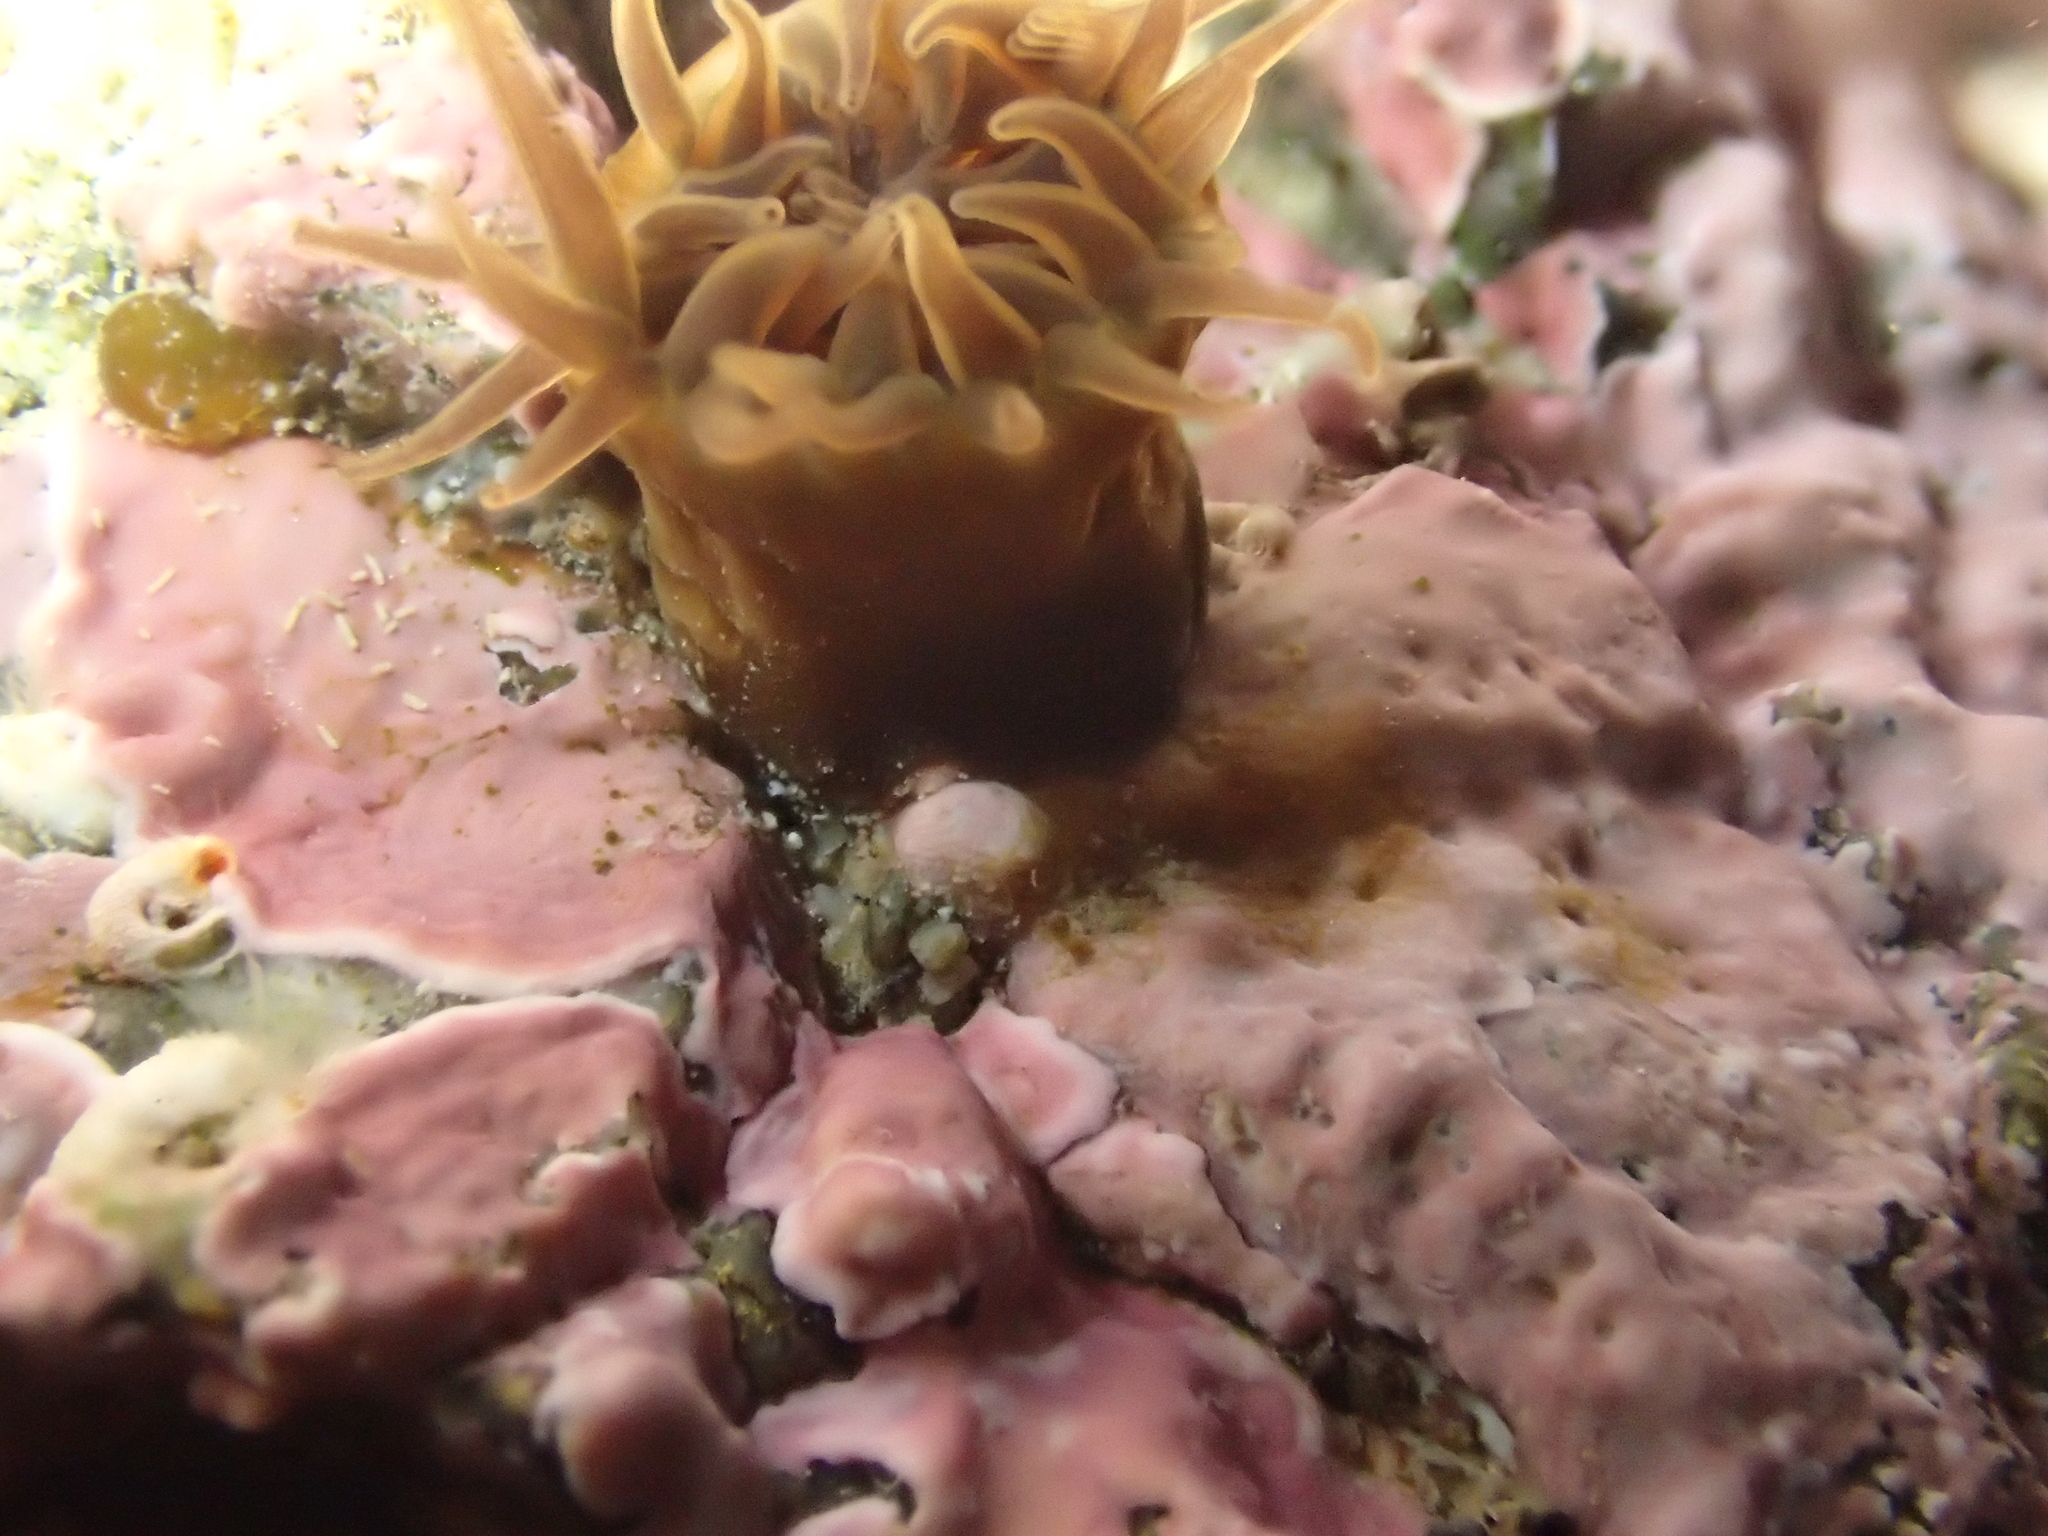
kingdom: Animalia
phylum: Cnidaria
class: Anthozoa
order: Actiniaria
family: Hormathiidae
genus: Handactis
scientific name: Handactis nutrix
